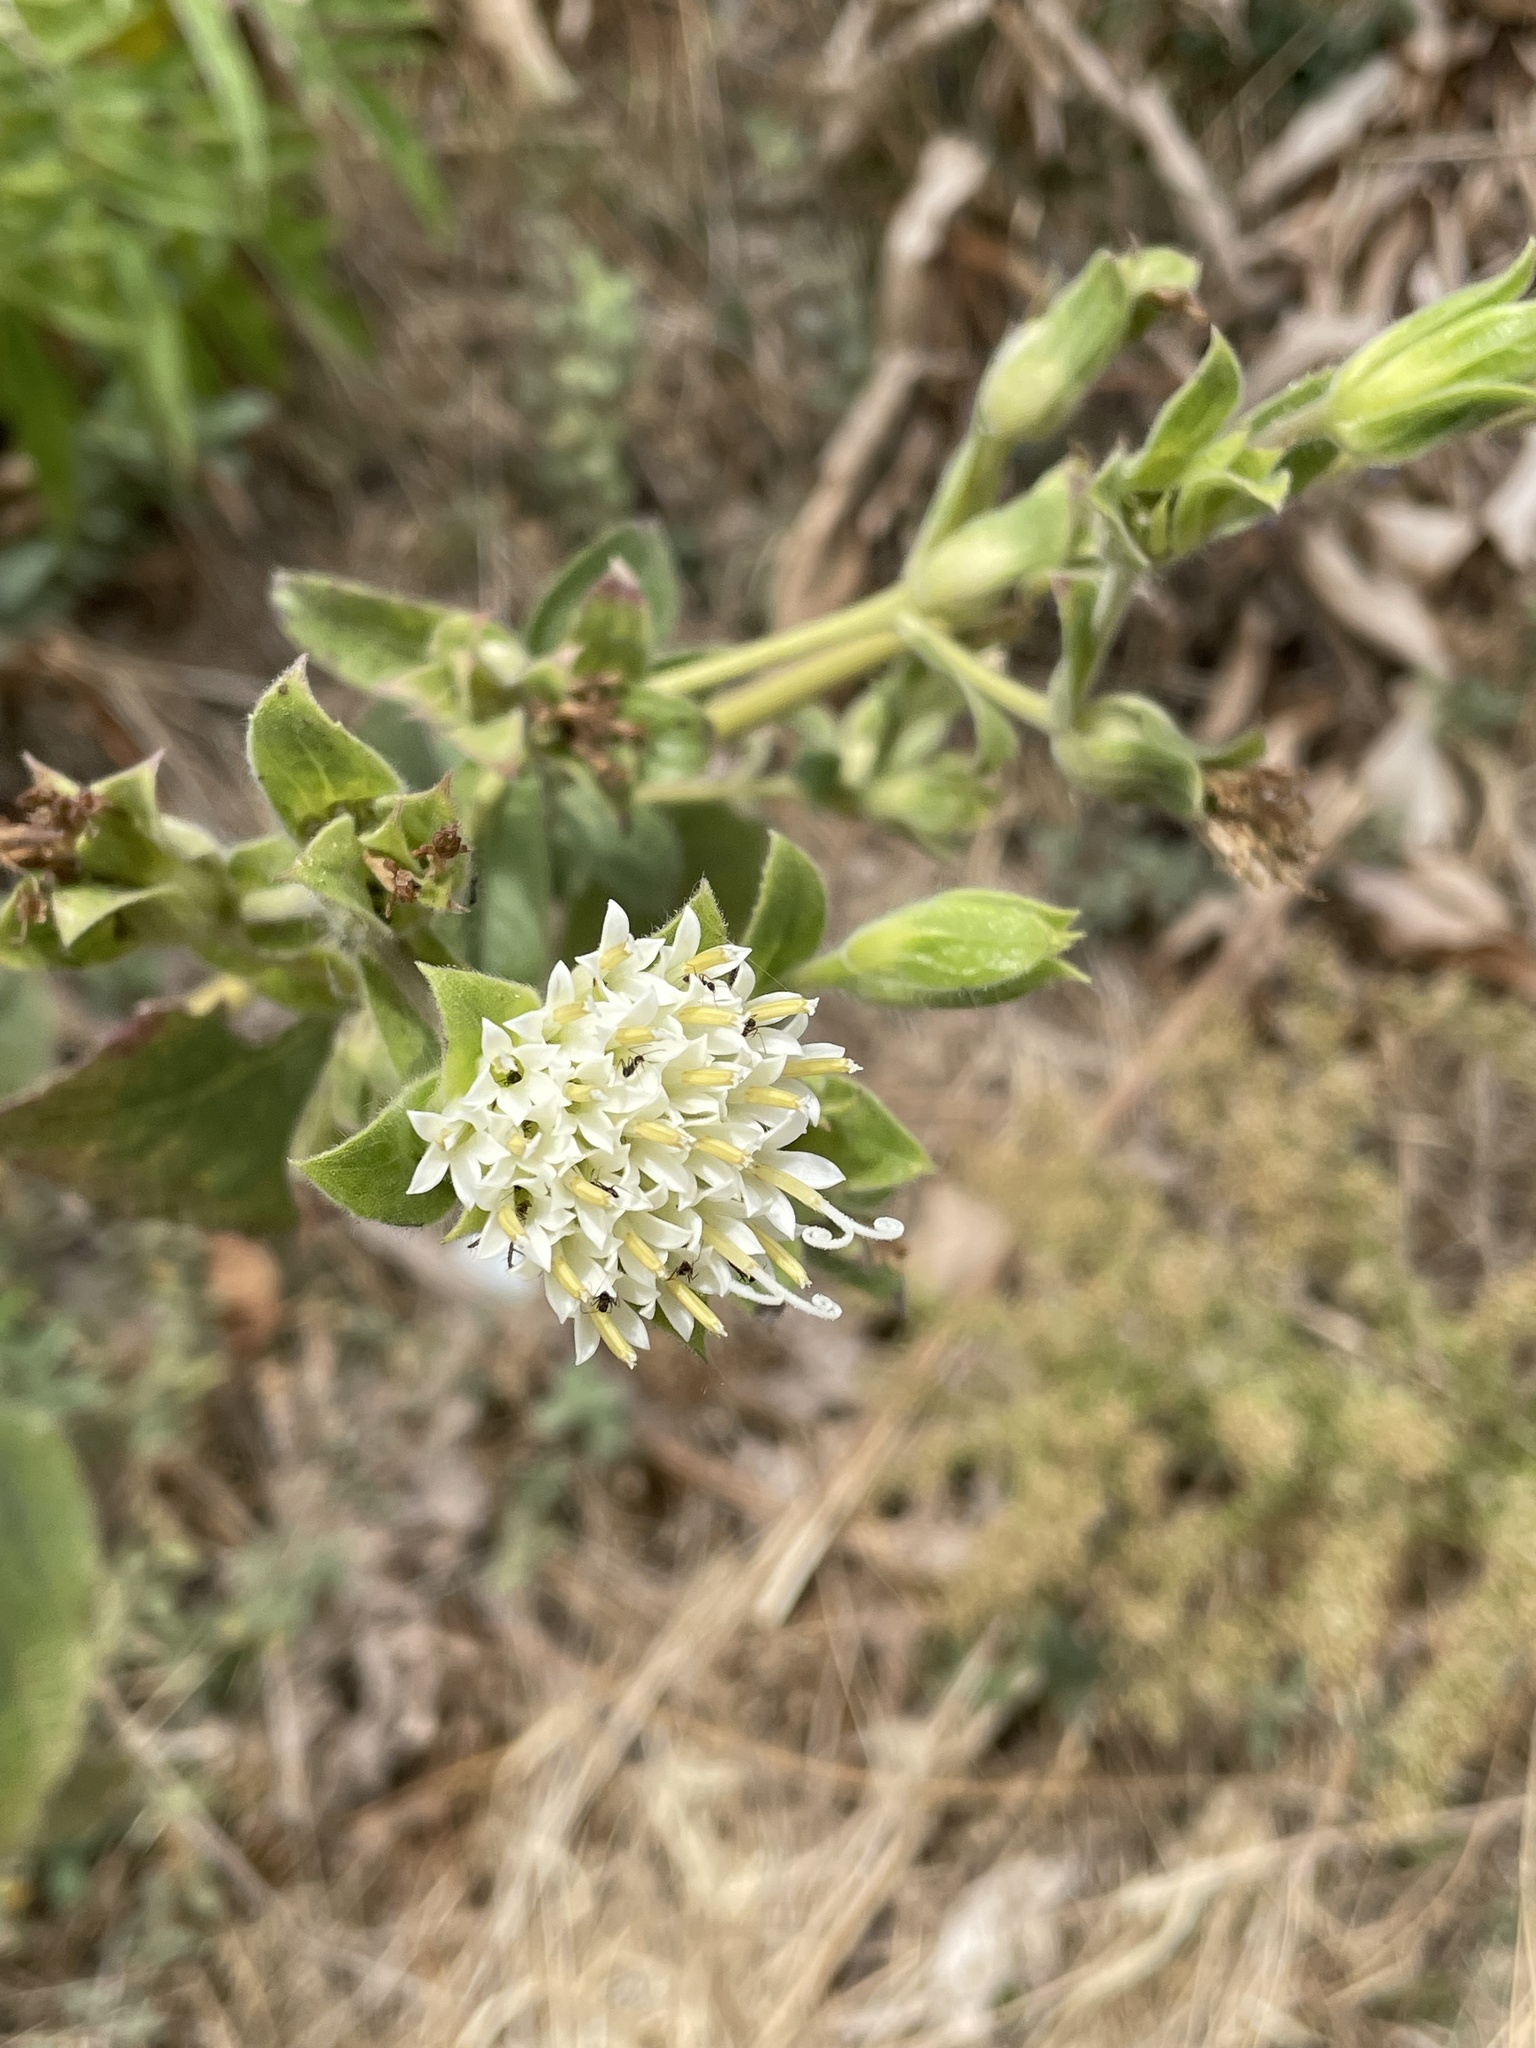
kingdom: Plantae
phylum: Tracheophyta
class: Magnoliopsida
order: Asterales
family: Asteraceae
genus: Lagascea
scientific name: Lagascea helianthifolia
